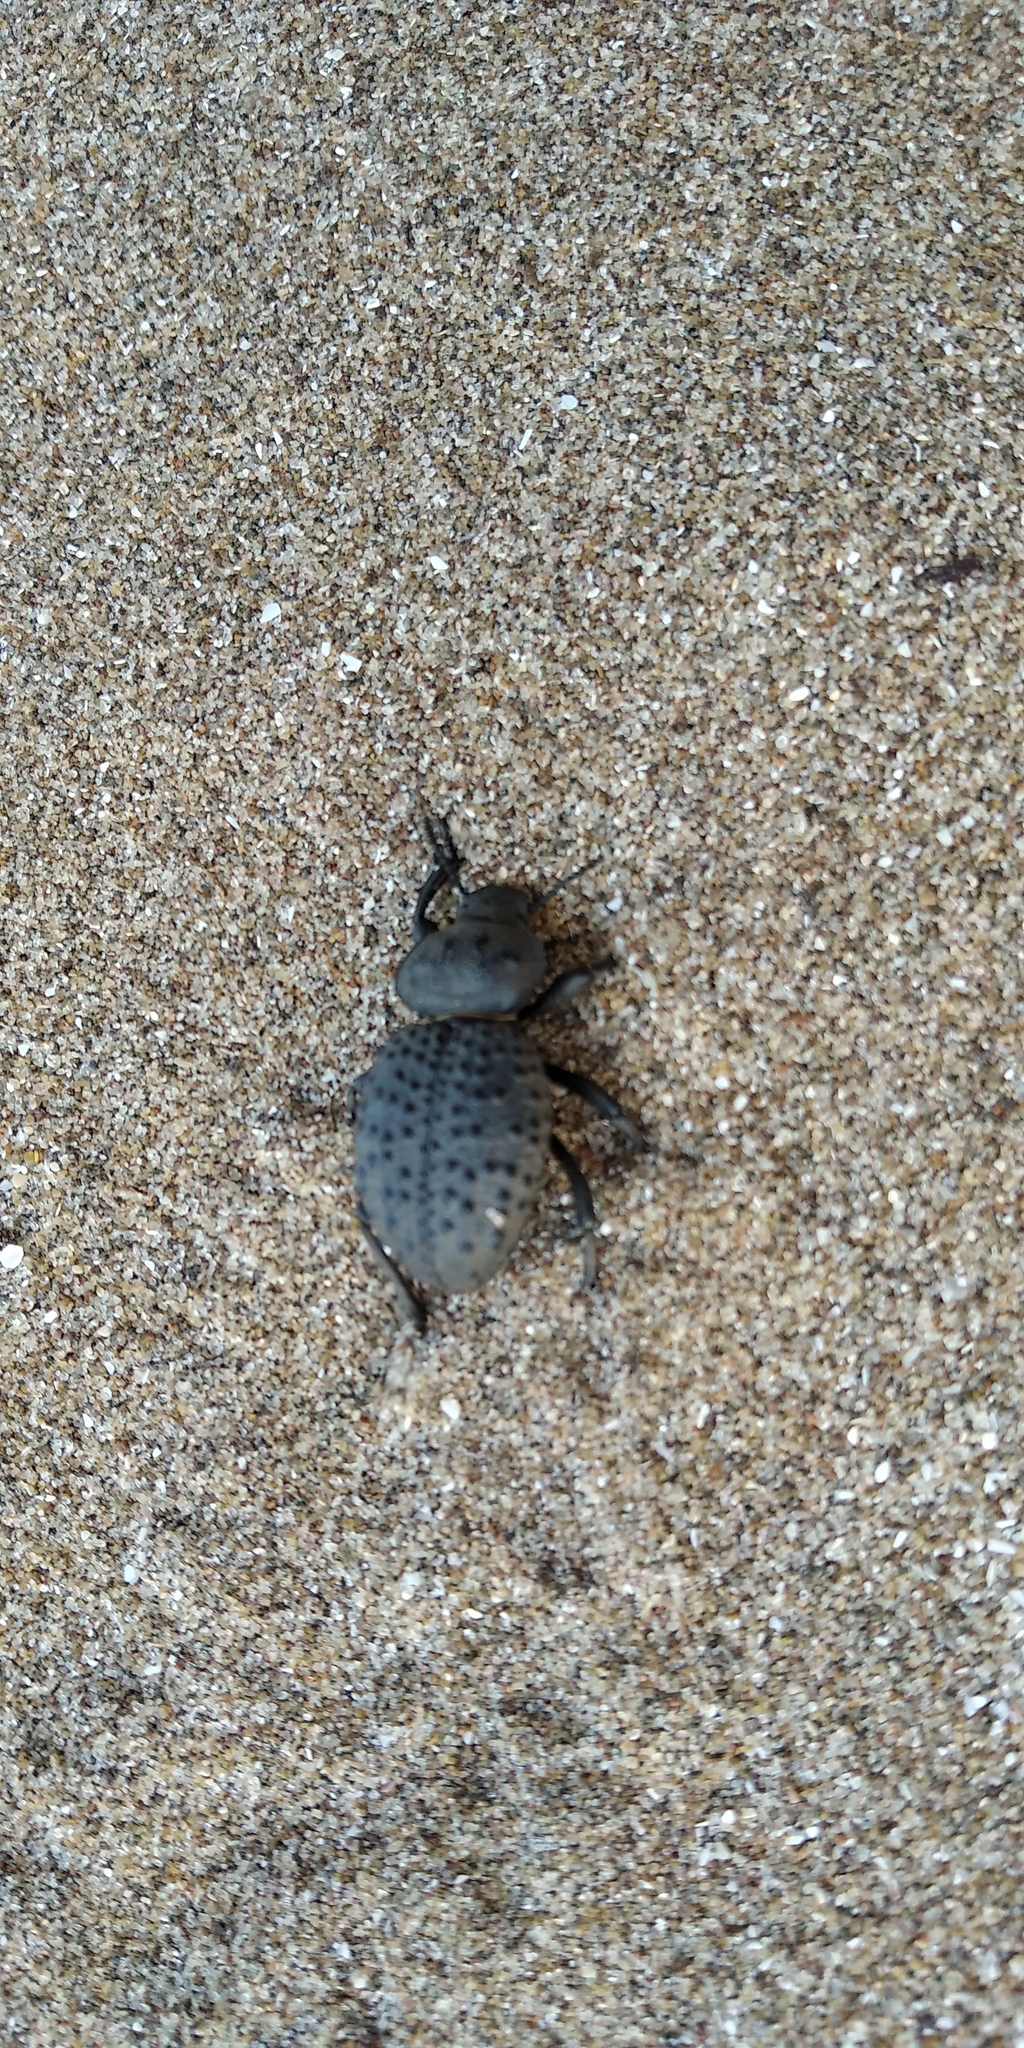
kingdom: Animalia
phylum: Arthropoda
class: Insecta
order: Coleoptera
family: Tenebrionidae
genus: Scotobius
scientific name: Scotobius pilularius
